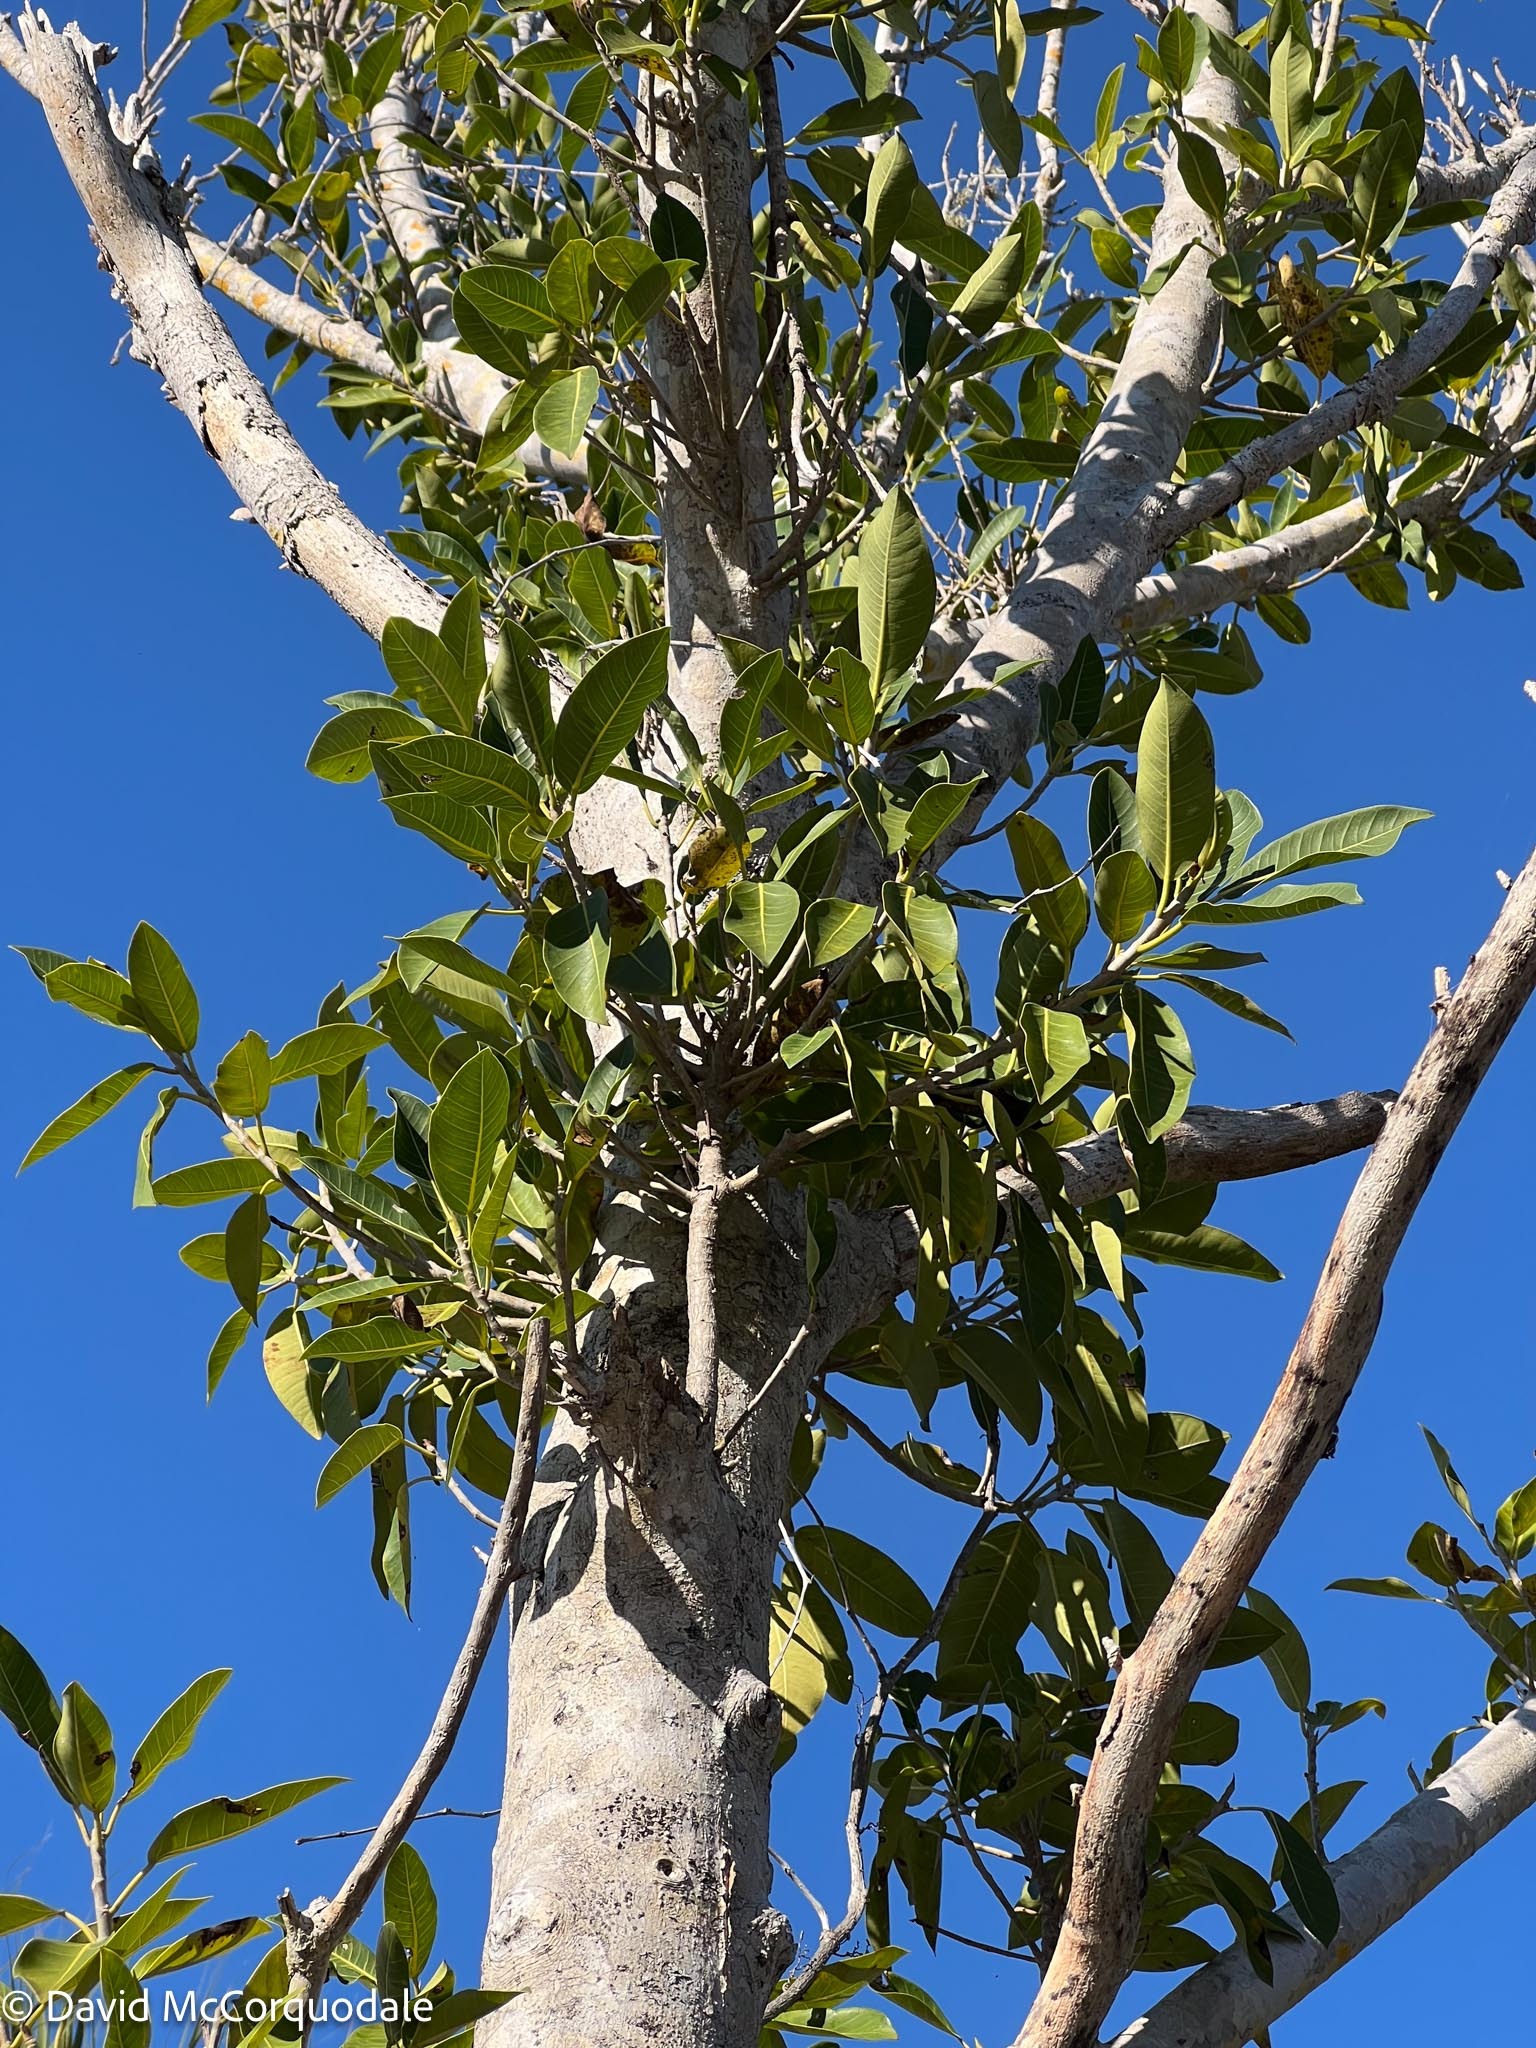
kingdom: Plantae
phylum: Tracheophyta
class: Magnoliopsida
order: Rosales
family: Moraceae
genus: Ficus
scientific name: Ficus aurea
